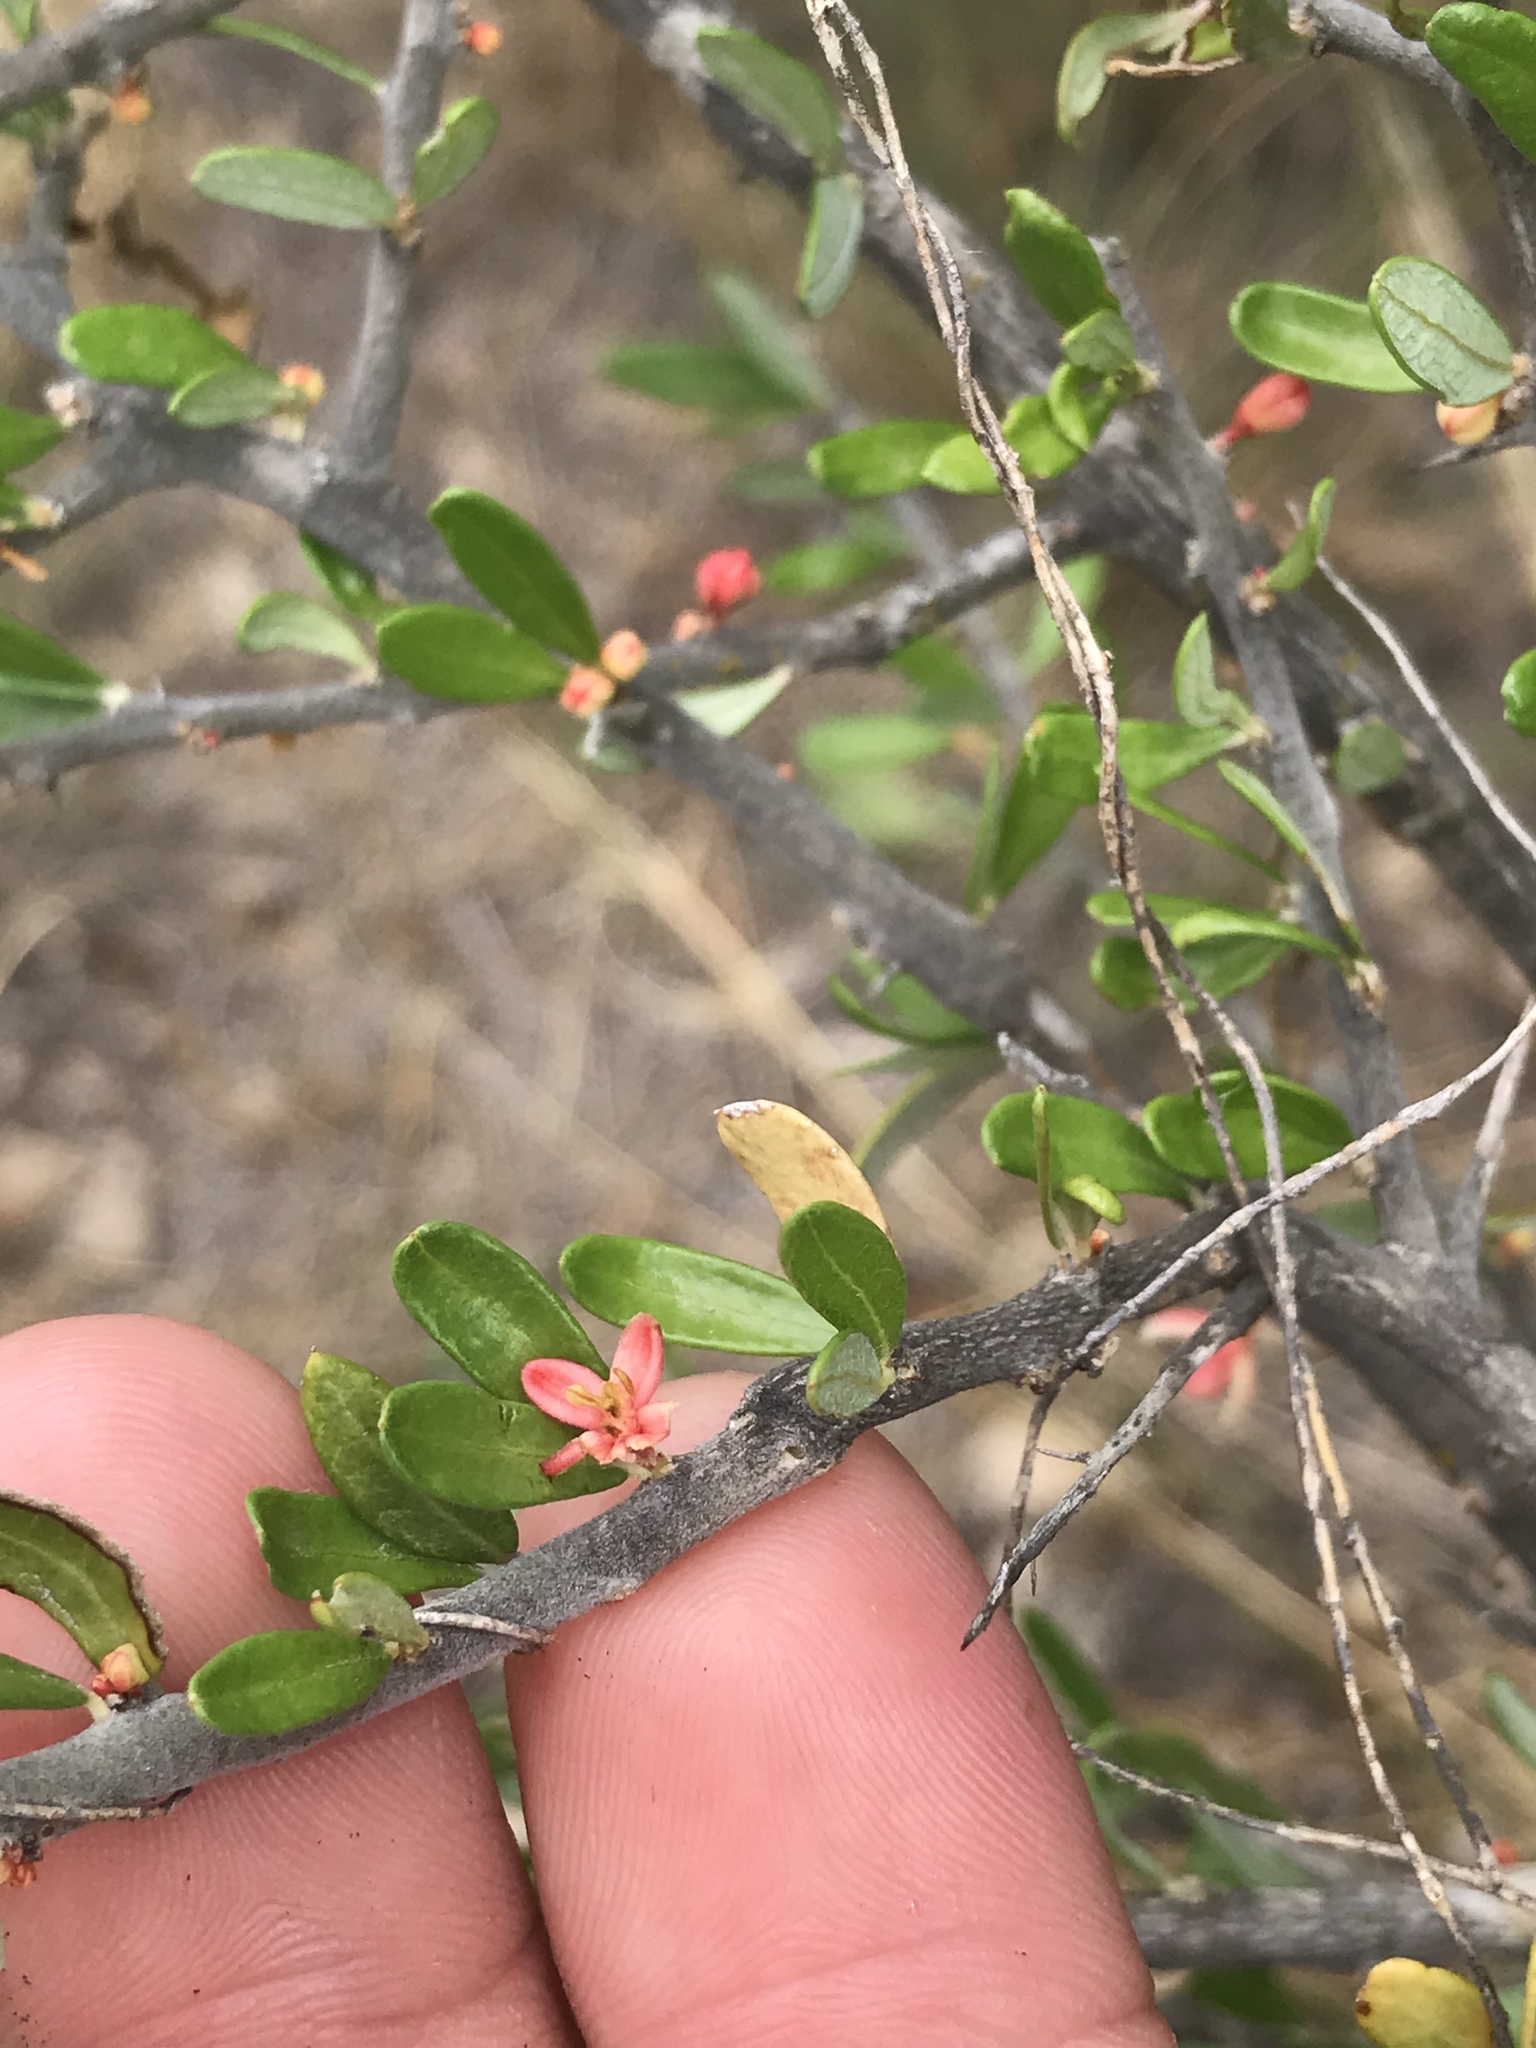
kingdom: Plantae
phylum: Tracheophyta
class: Magnoliopsida
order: Sapindales
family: Simaroubaceae
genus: Castela
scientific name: Castela erecta
